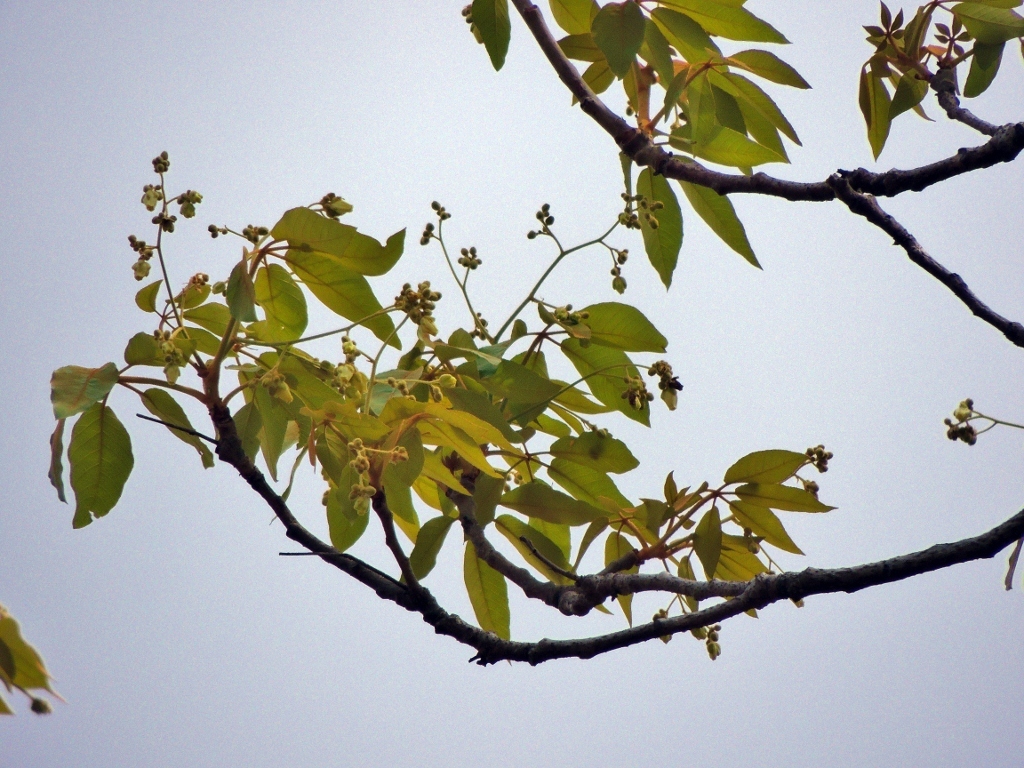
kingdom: Plantae
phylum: Tracheophyta
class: Magnoliopsida
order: Malpighiales
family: Euphorbiaceae
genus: Schinziophyton
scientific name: Schinziophyton rautanenii
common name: Manketti
